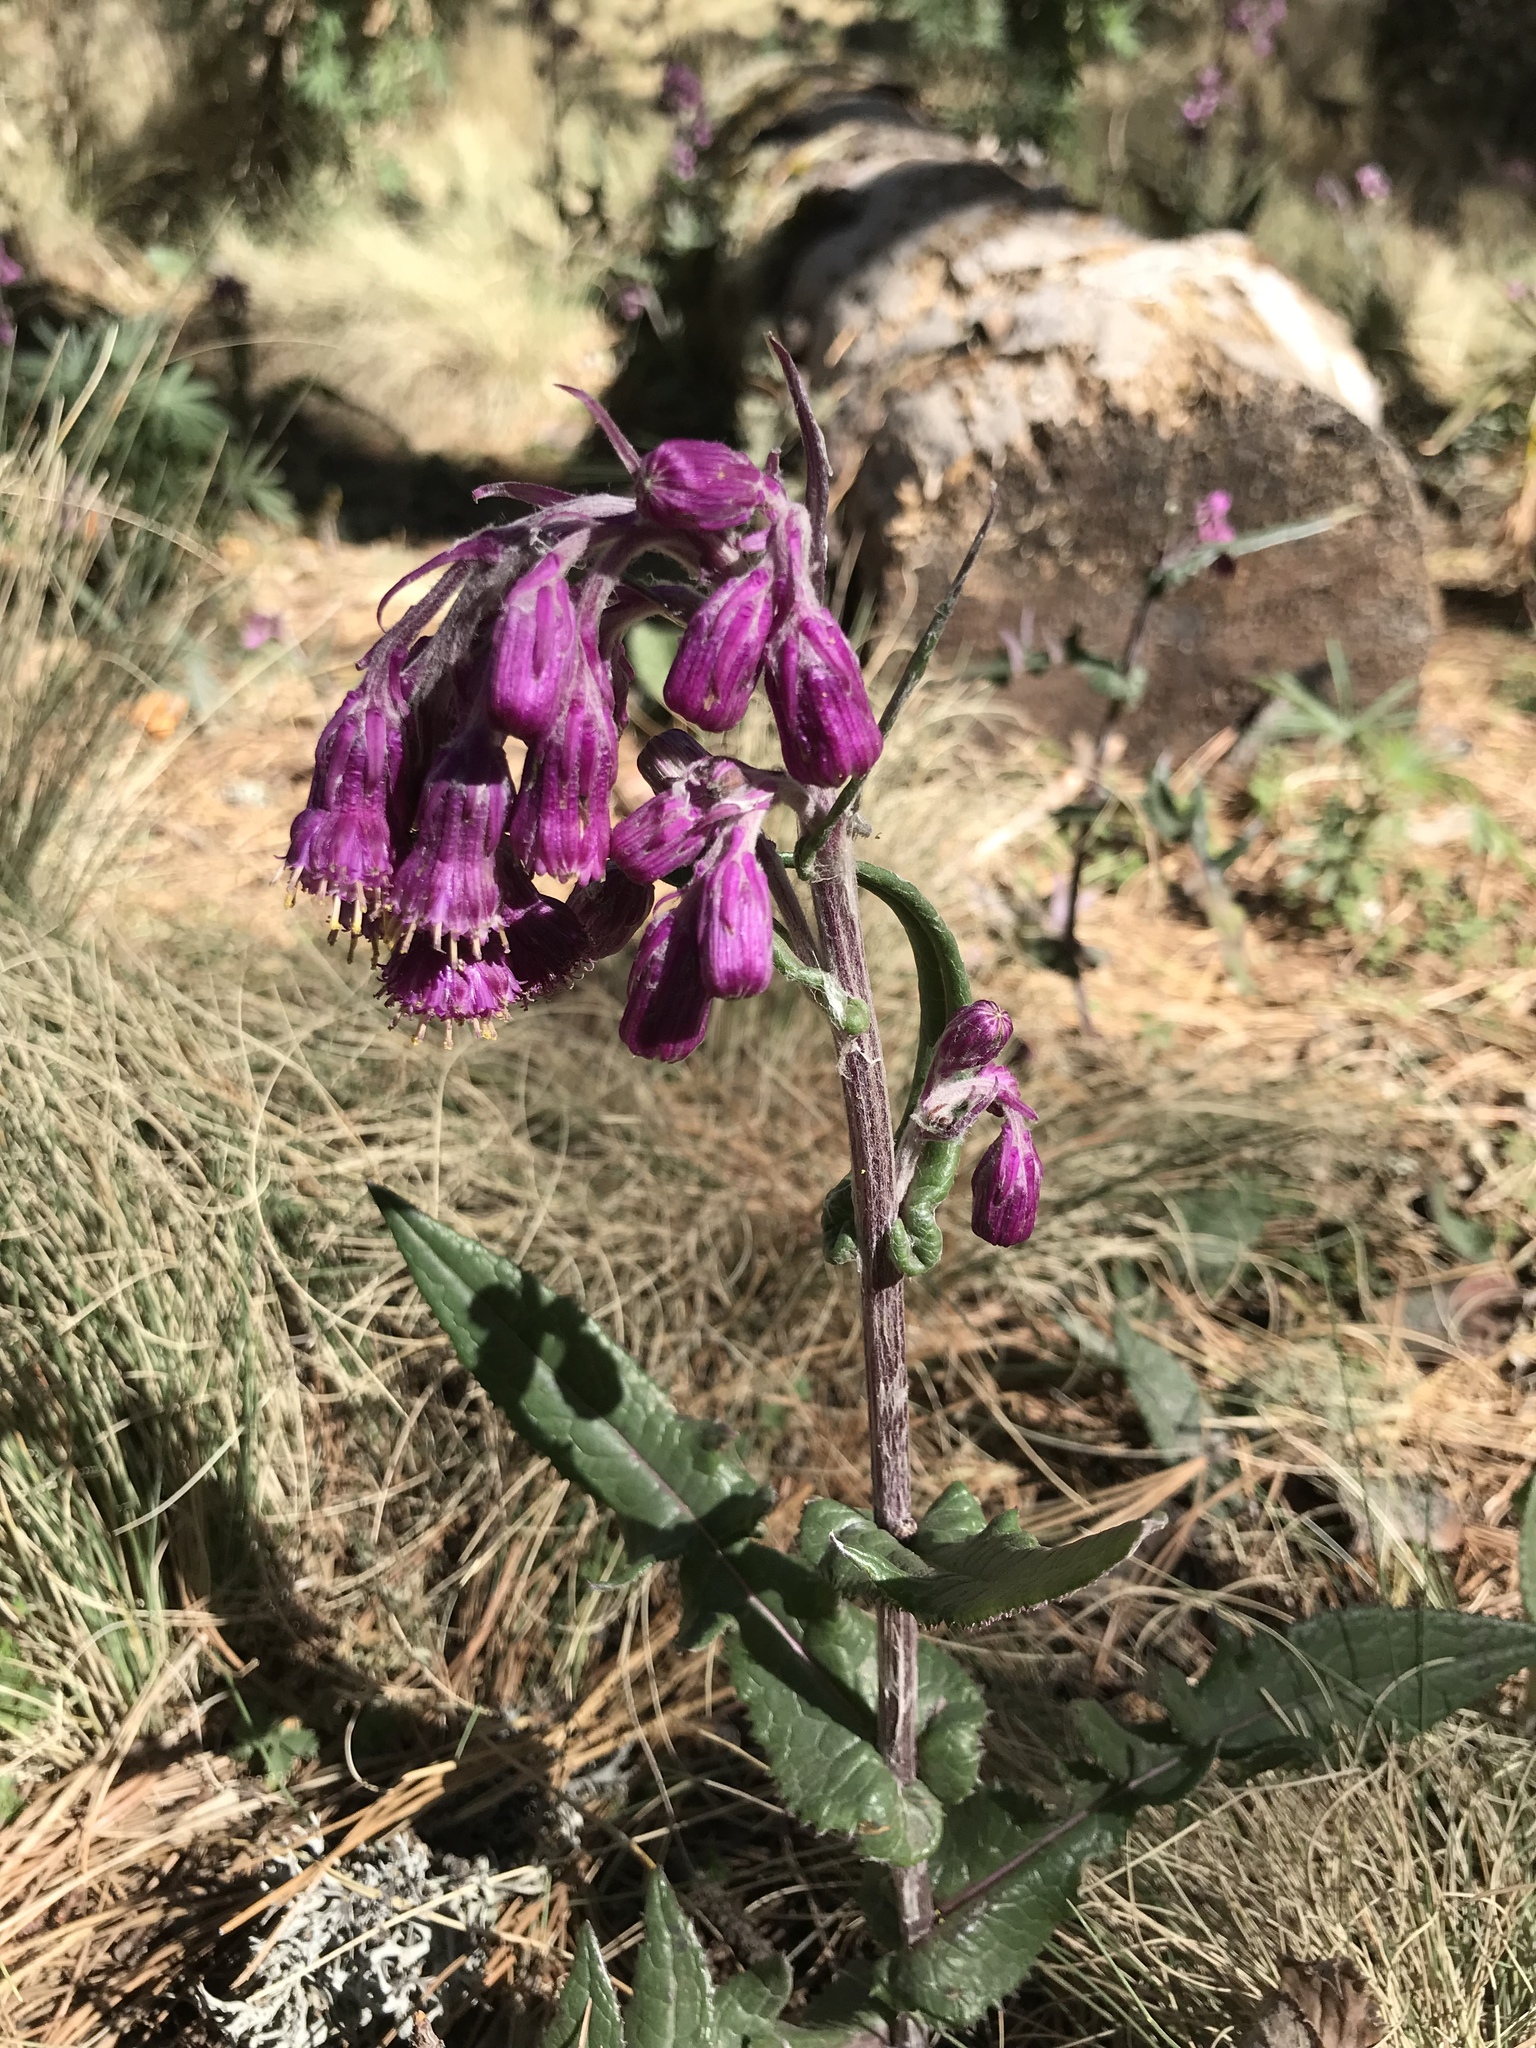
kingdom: Plantae
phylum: Tracheophyta
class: Magnoliopsida
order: Asterales
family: Asteraceae
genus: Senecio
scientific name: Senecio roseus
